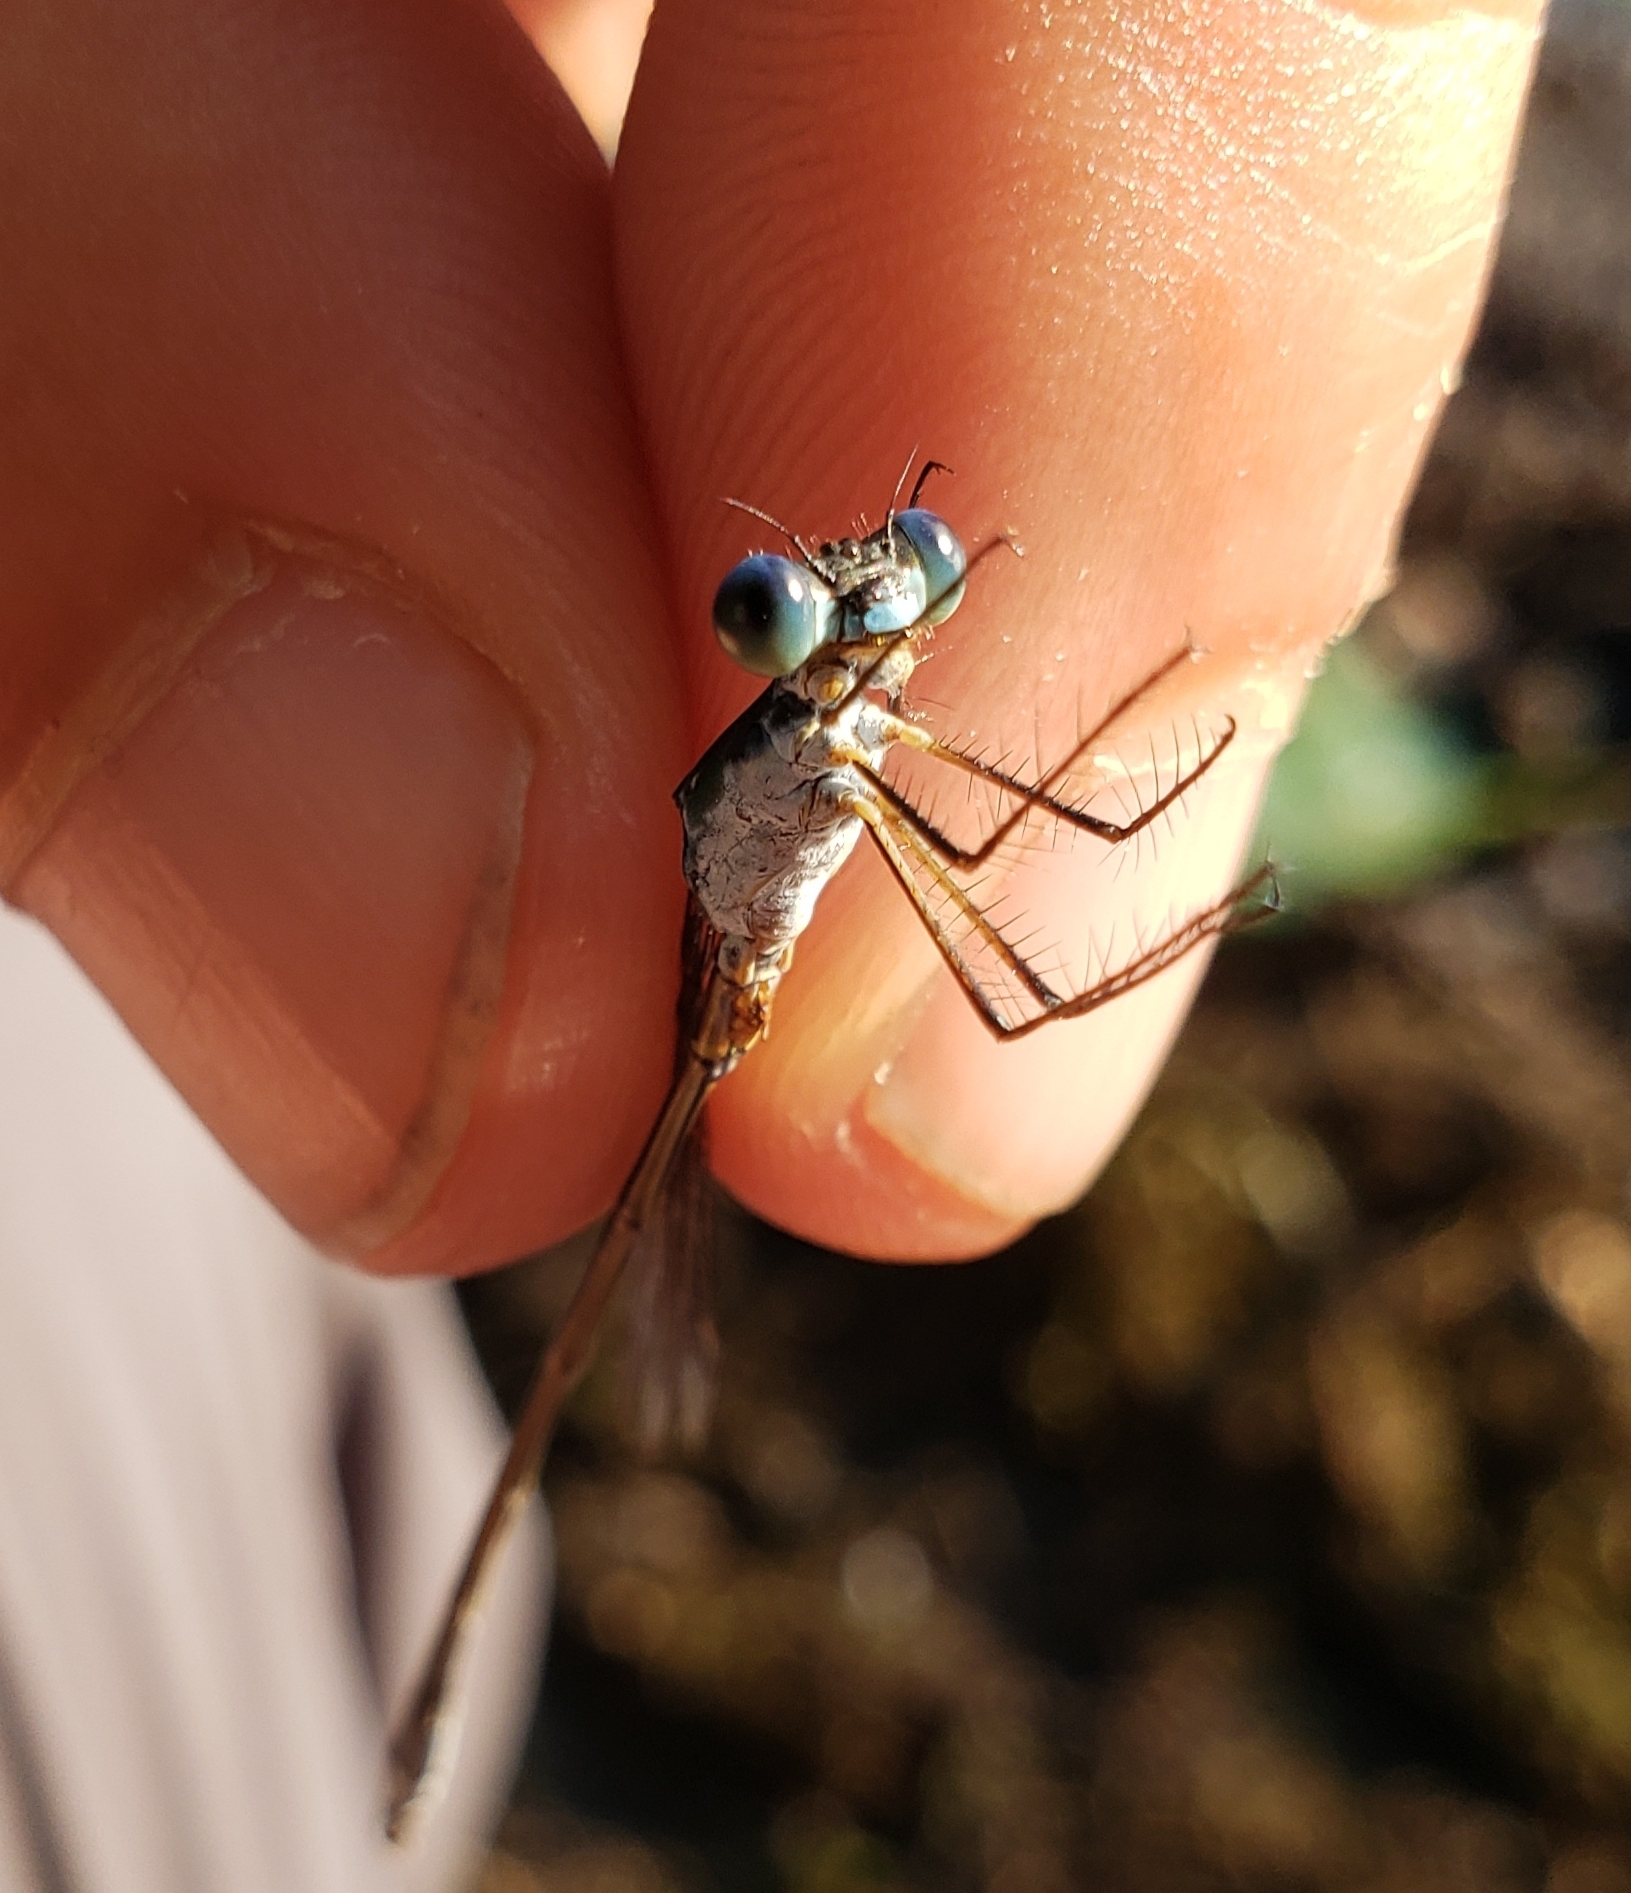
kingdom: Animalia
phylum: Arthropoda
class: Insecta
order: Odonata
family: Lestidae
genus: Lestes
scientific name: Lestes vigilax
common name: Swamp spreadwing
